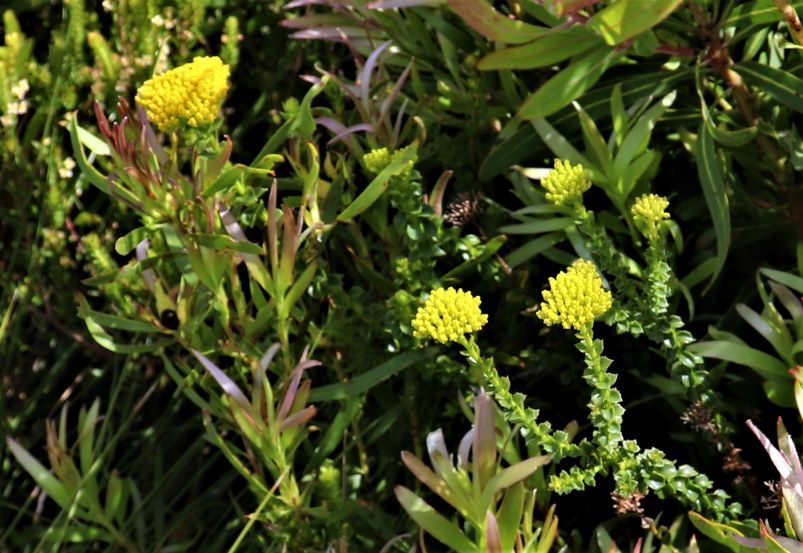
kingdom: Plantae
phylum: Tracheophyta
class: Magnoliopsida
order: Asterales
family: Asteraceae
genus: Athanasia
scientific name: Athanasia dentata
